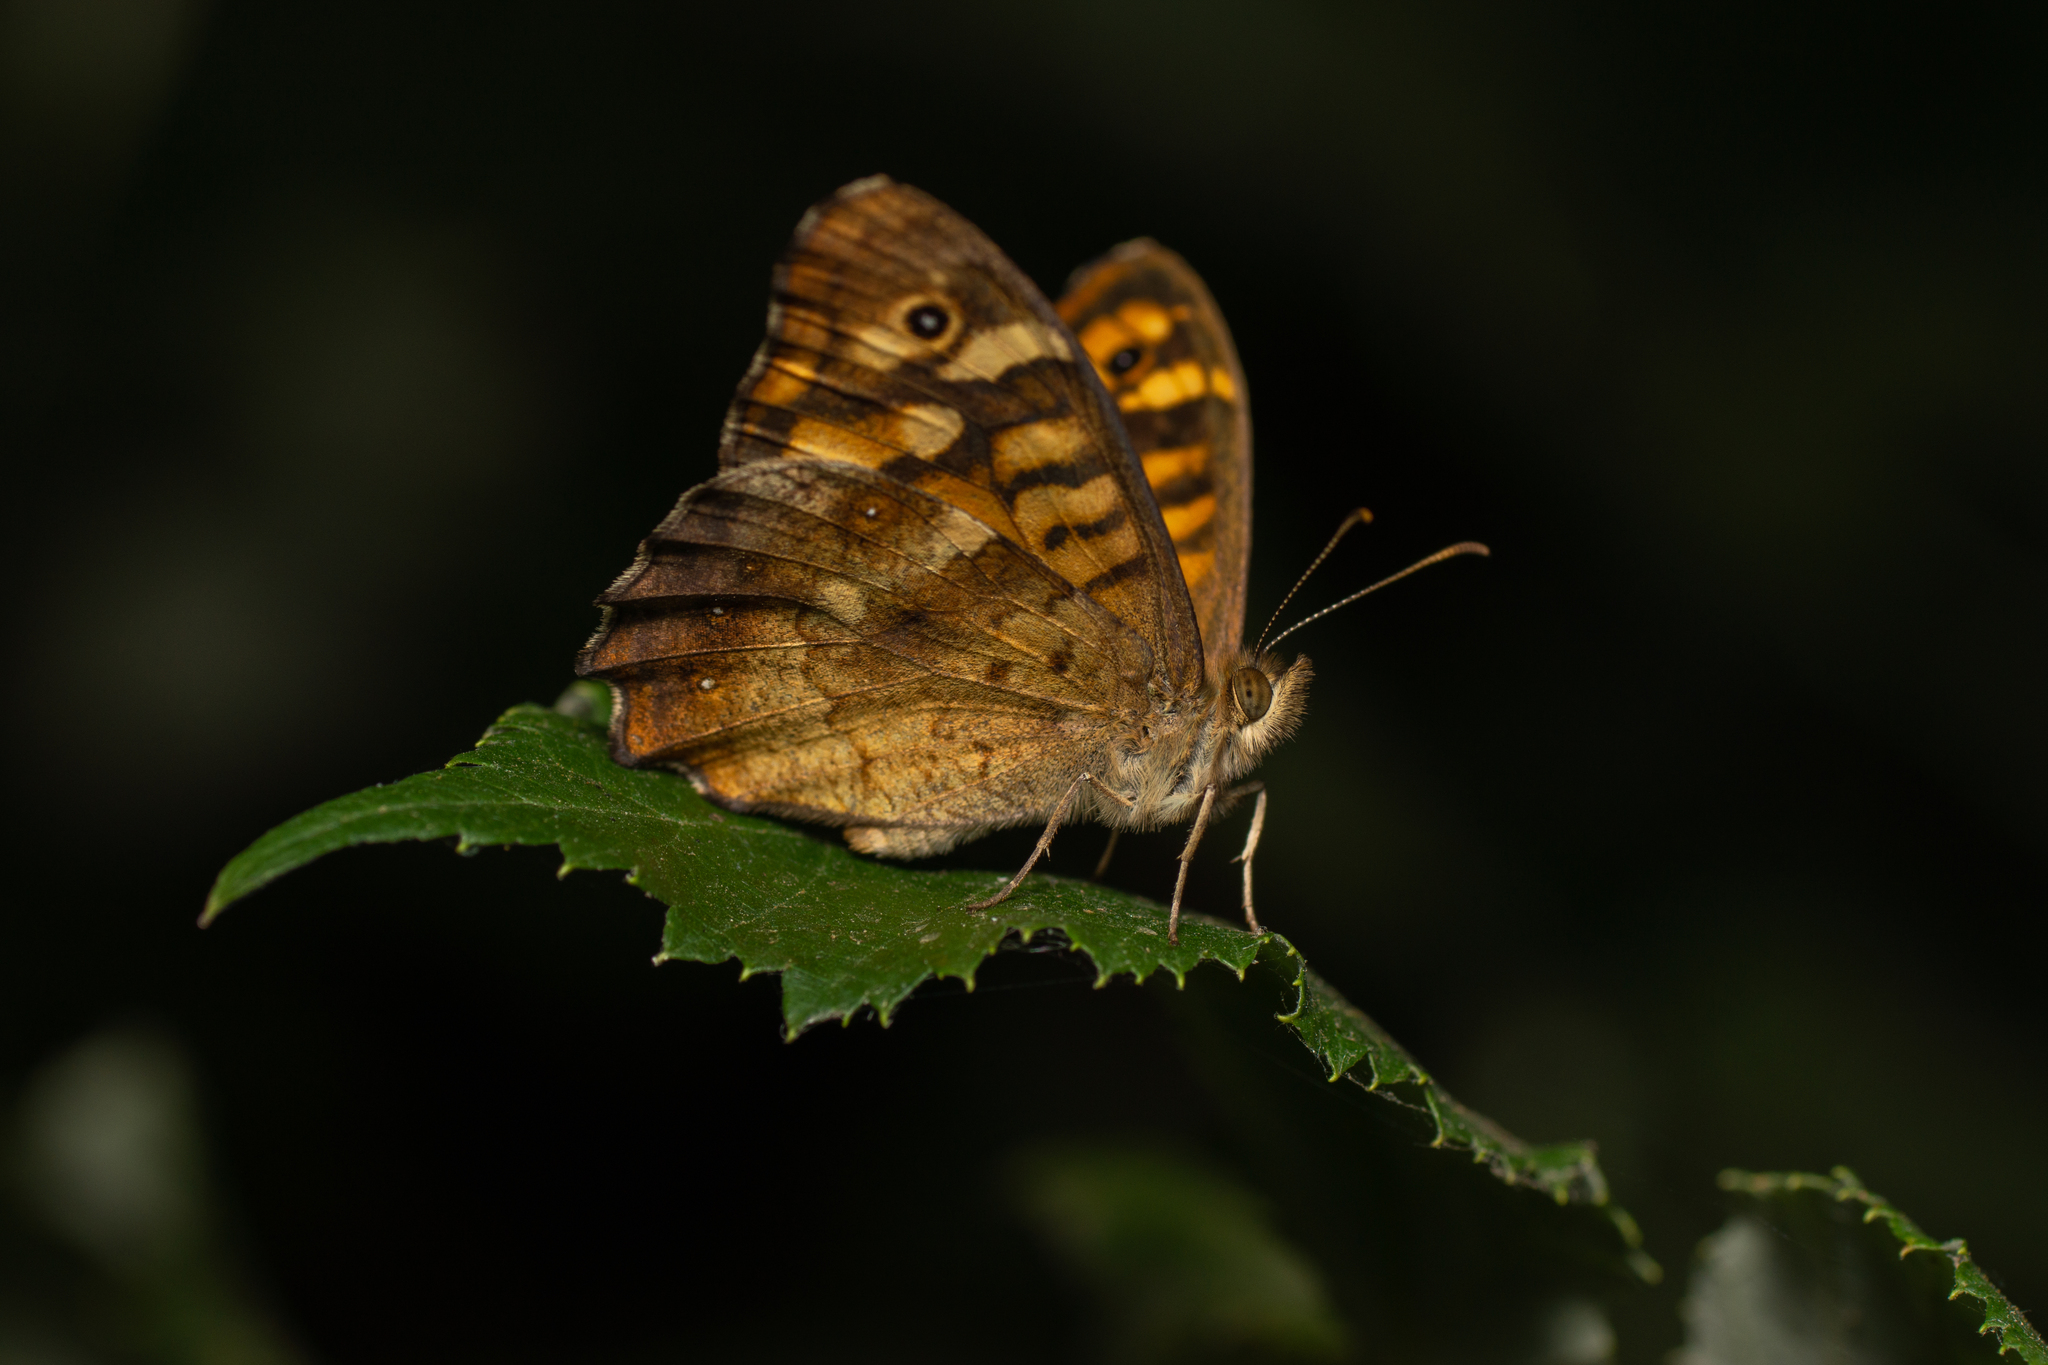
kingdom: Animalia
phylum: Arthropoda
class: Insecta
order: Lepidoptera
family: Nymphalidae
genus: Pararge
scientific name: Pararge aegeria
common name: Speckled wood
